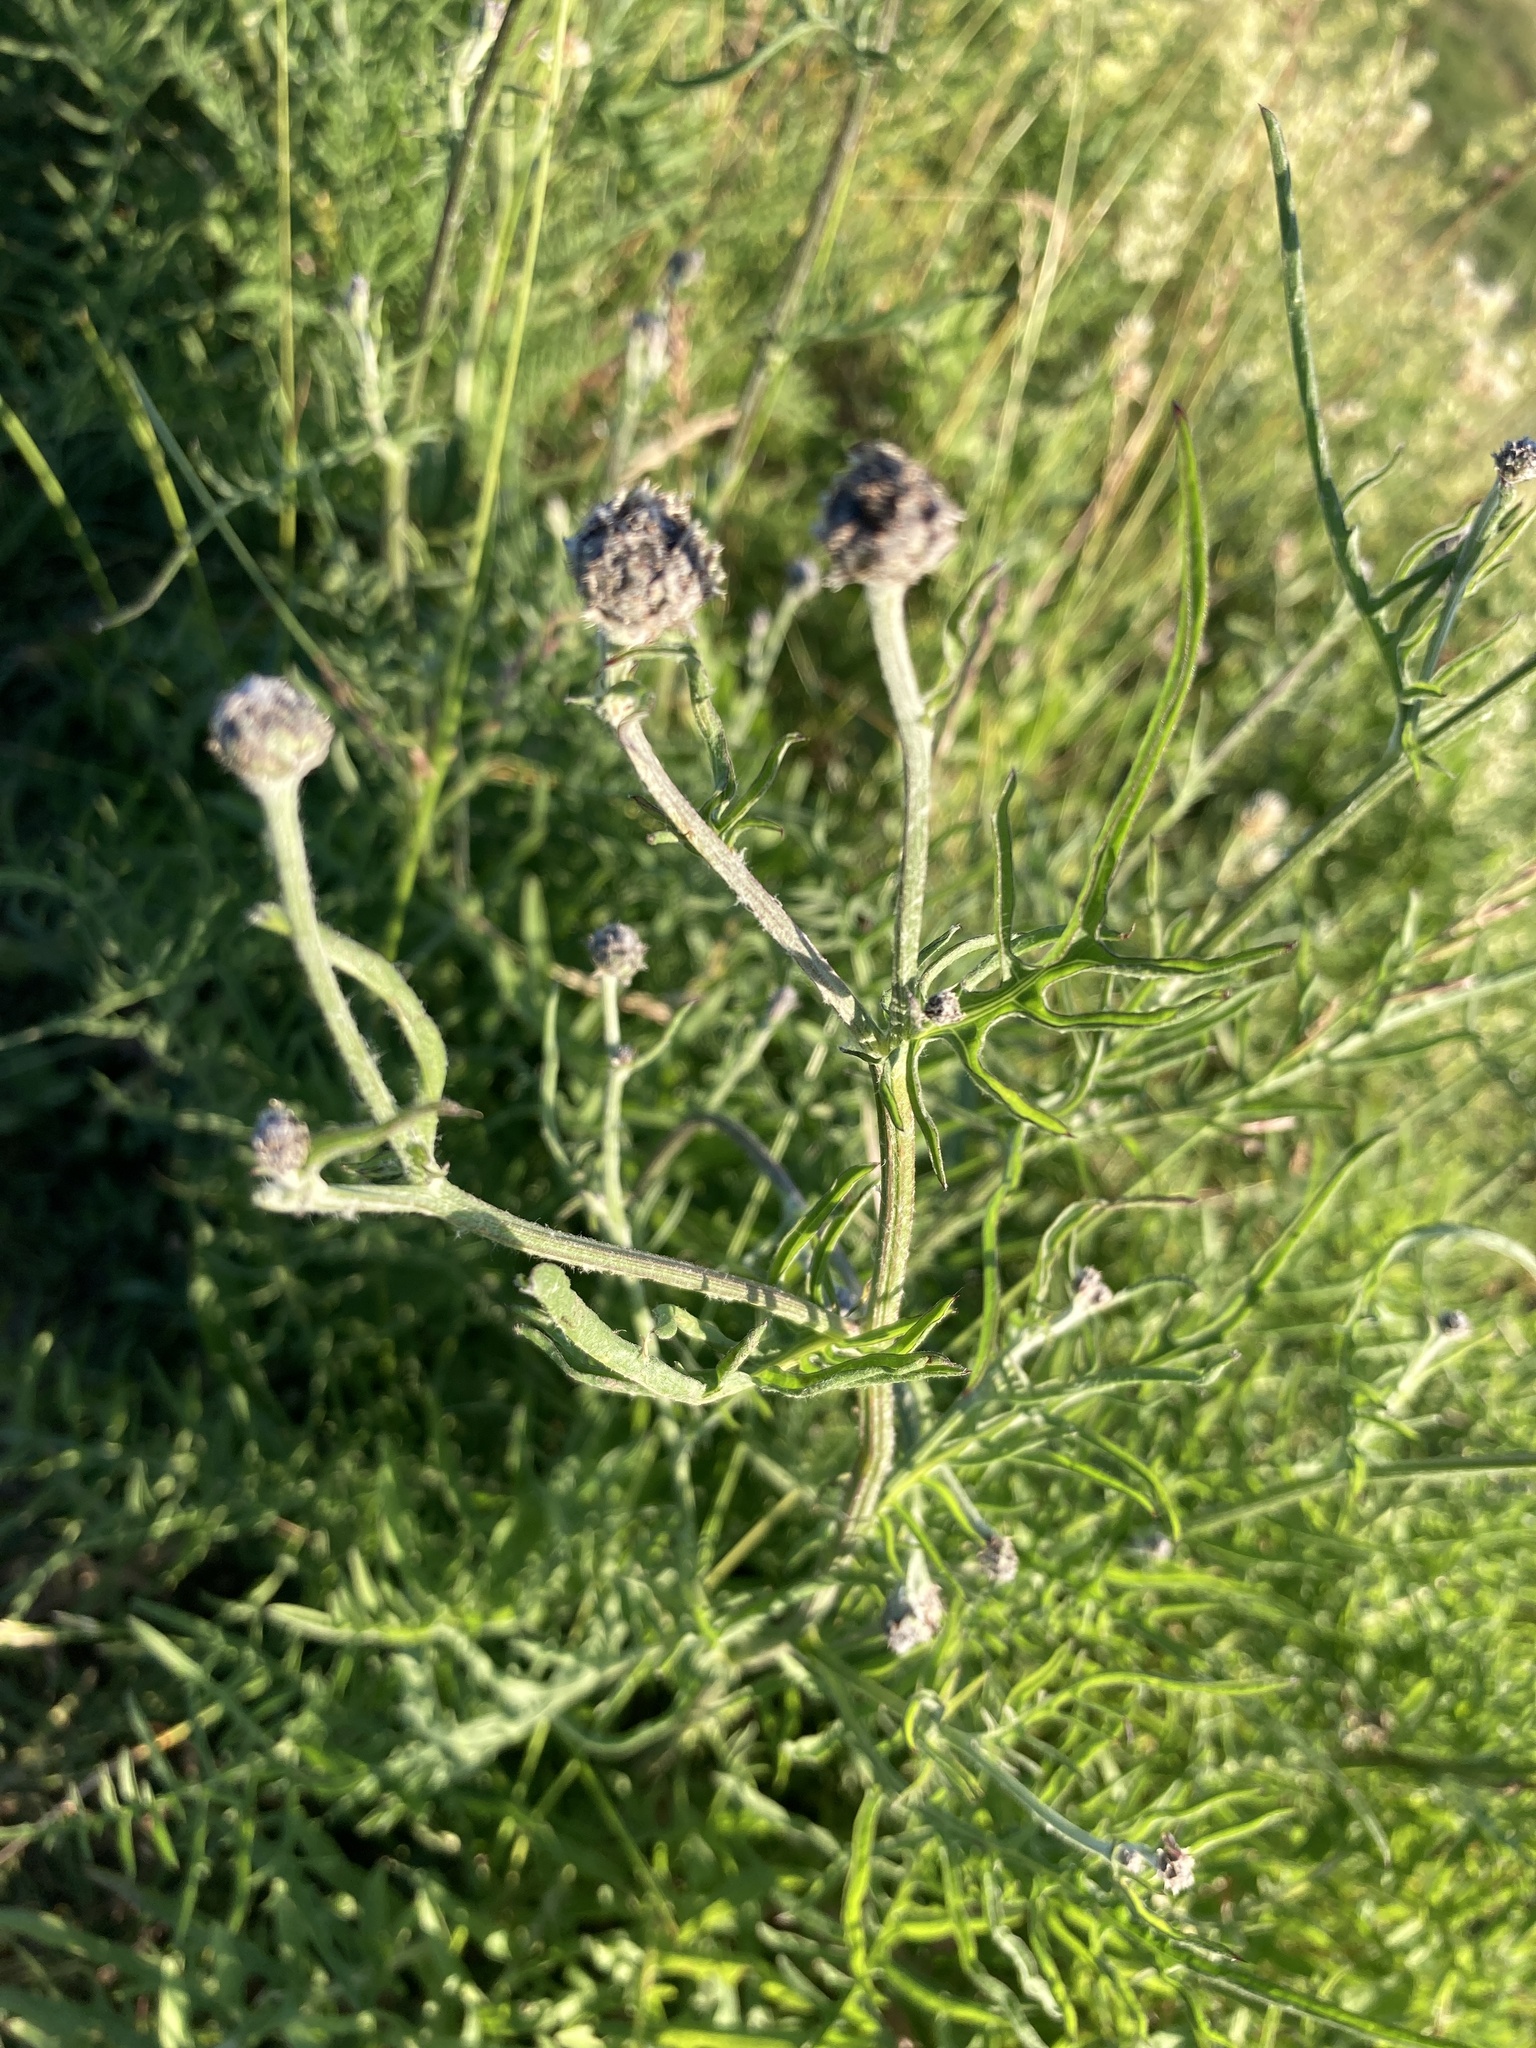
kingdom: Plantae
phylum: Tracheophyta
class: Magnoliopsida
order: Asterales
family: Asteraceae
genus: Centaurea
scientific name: Centaurea scabiosa
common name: Greater knapweed
